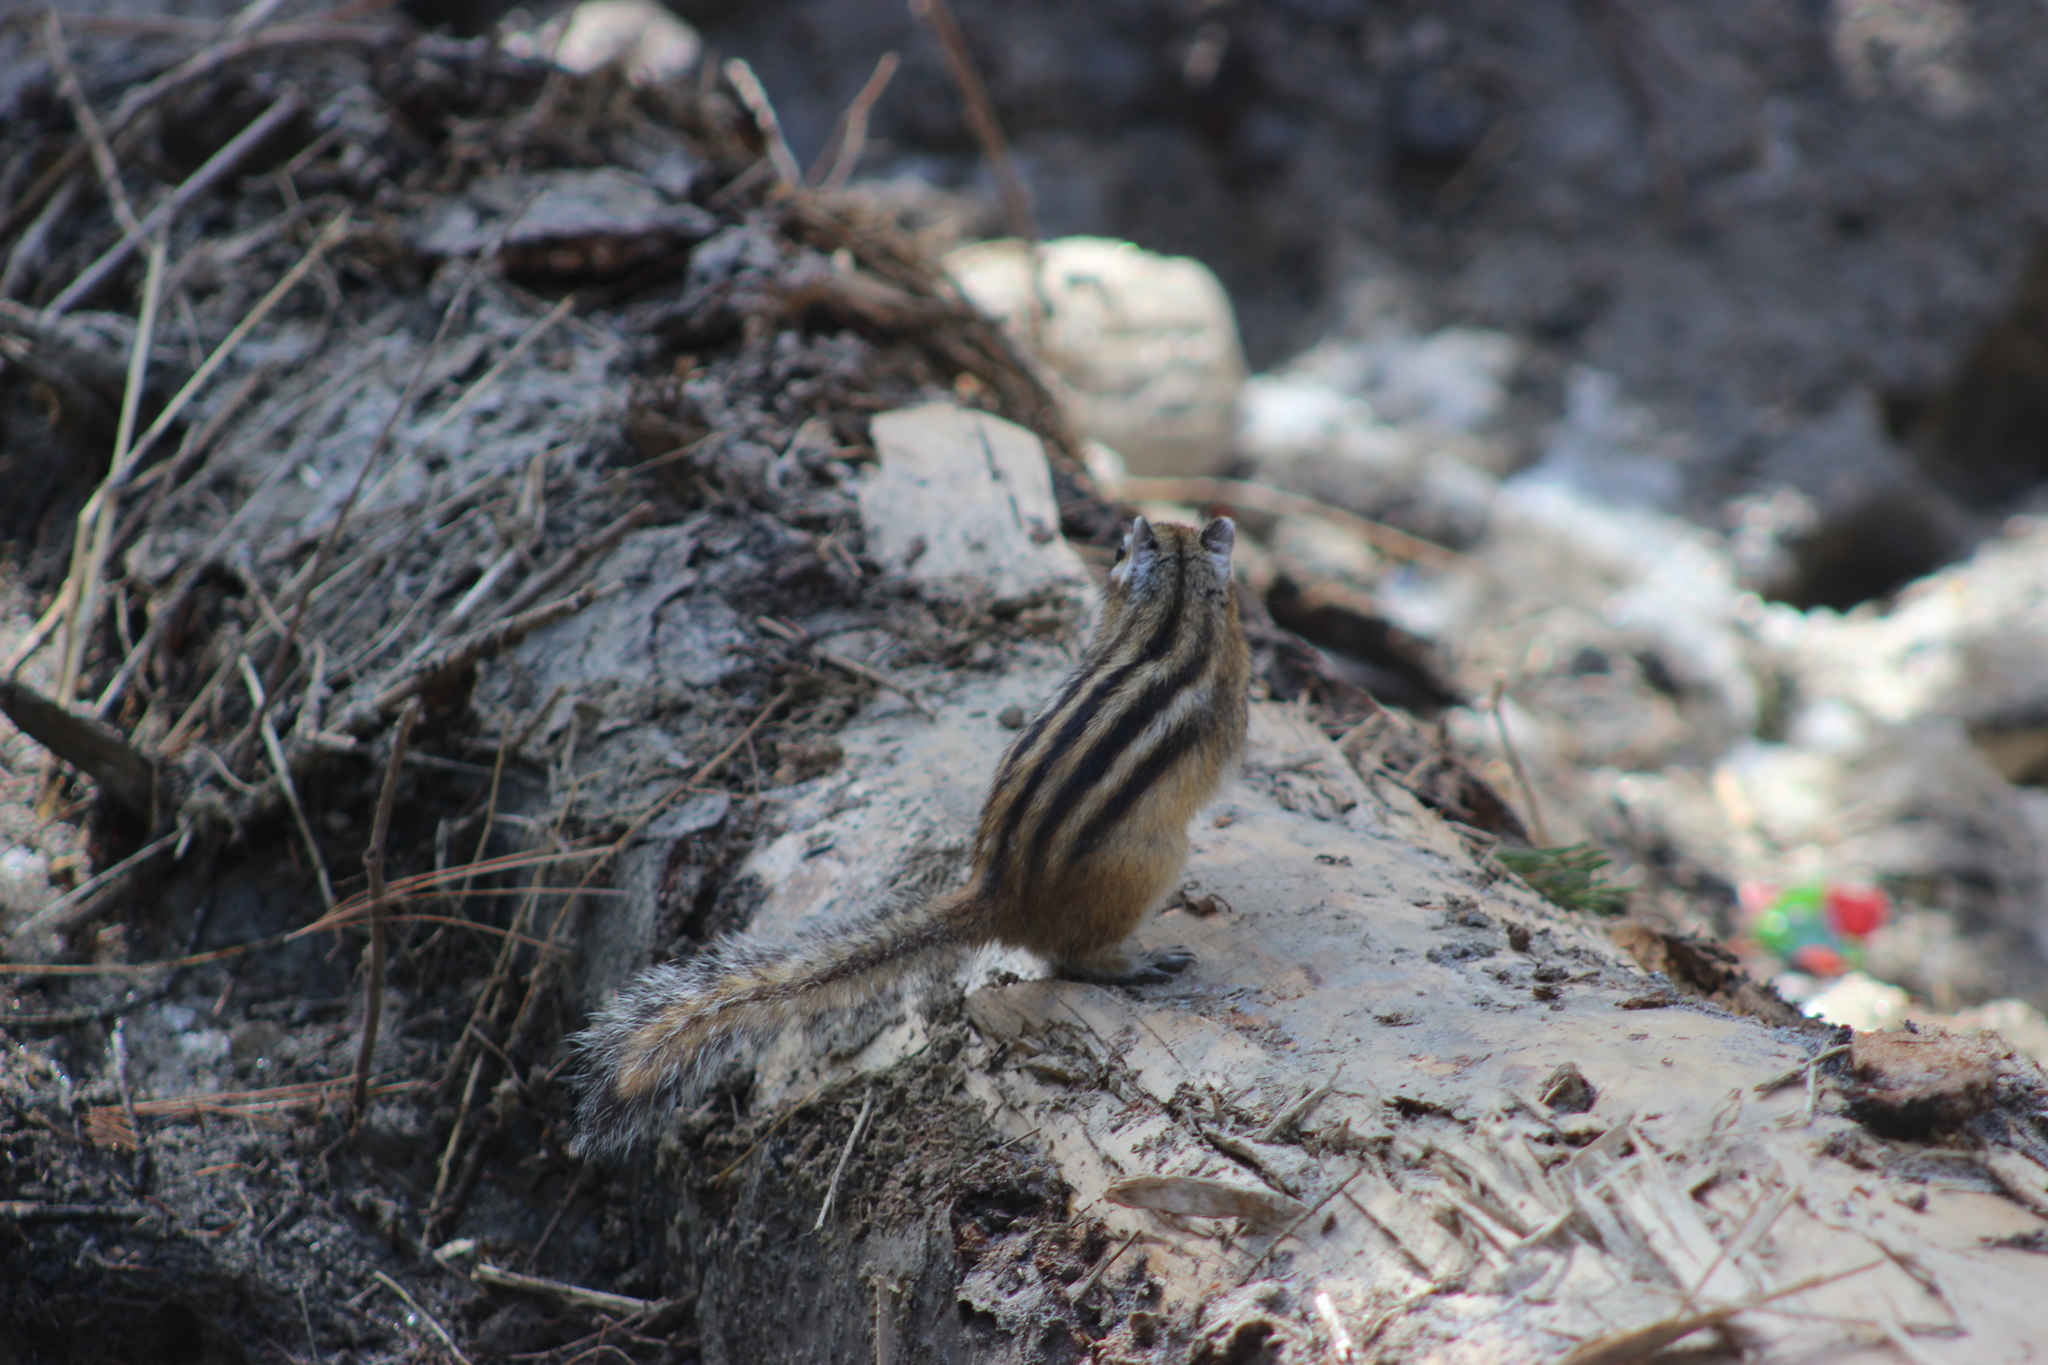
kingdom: Animalia
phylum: Chordata
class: Mammalia
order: Rodentia
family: Sciuridae
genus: Tamias
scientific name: Tamias sibiricus
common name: Siberian chipmunk
